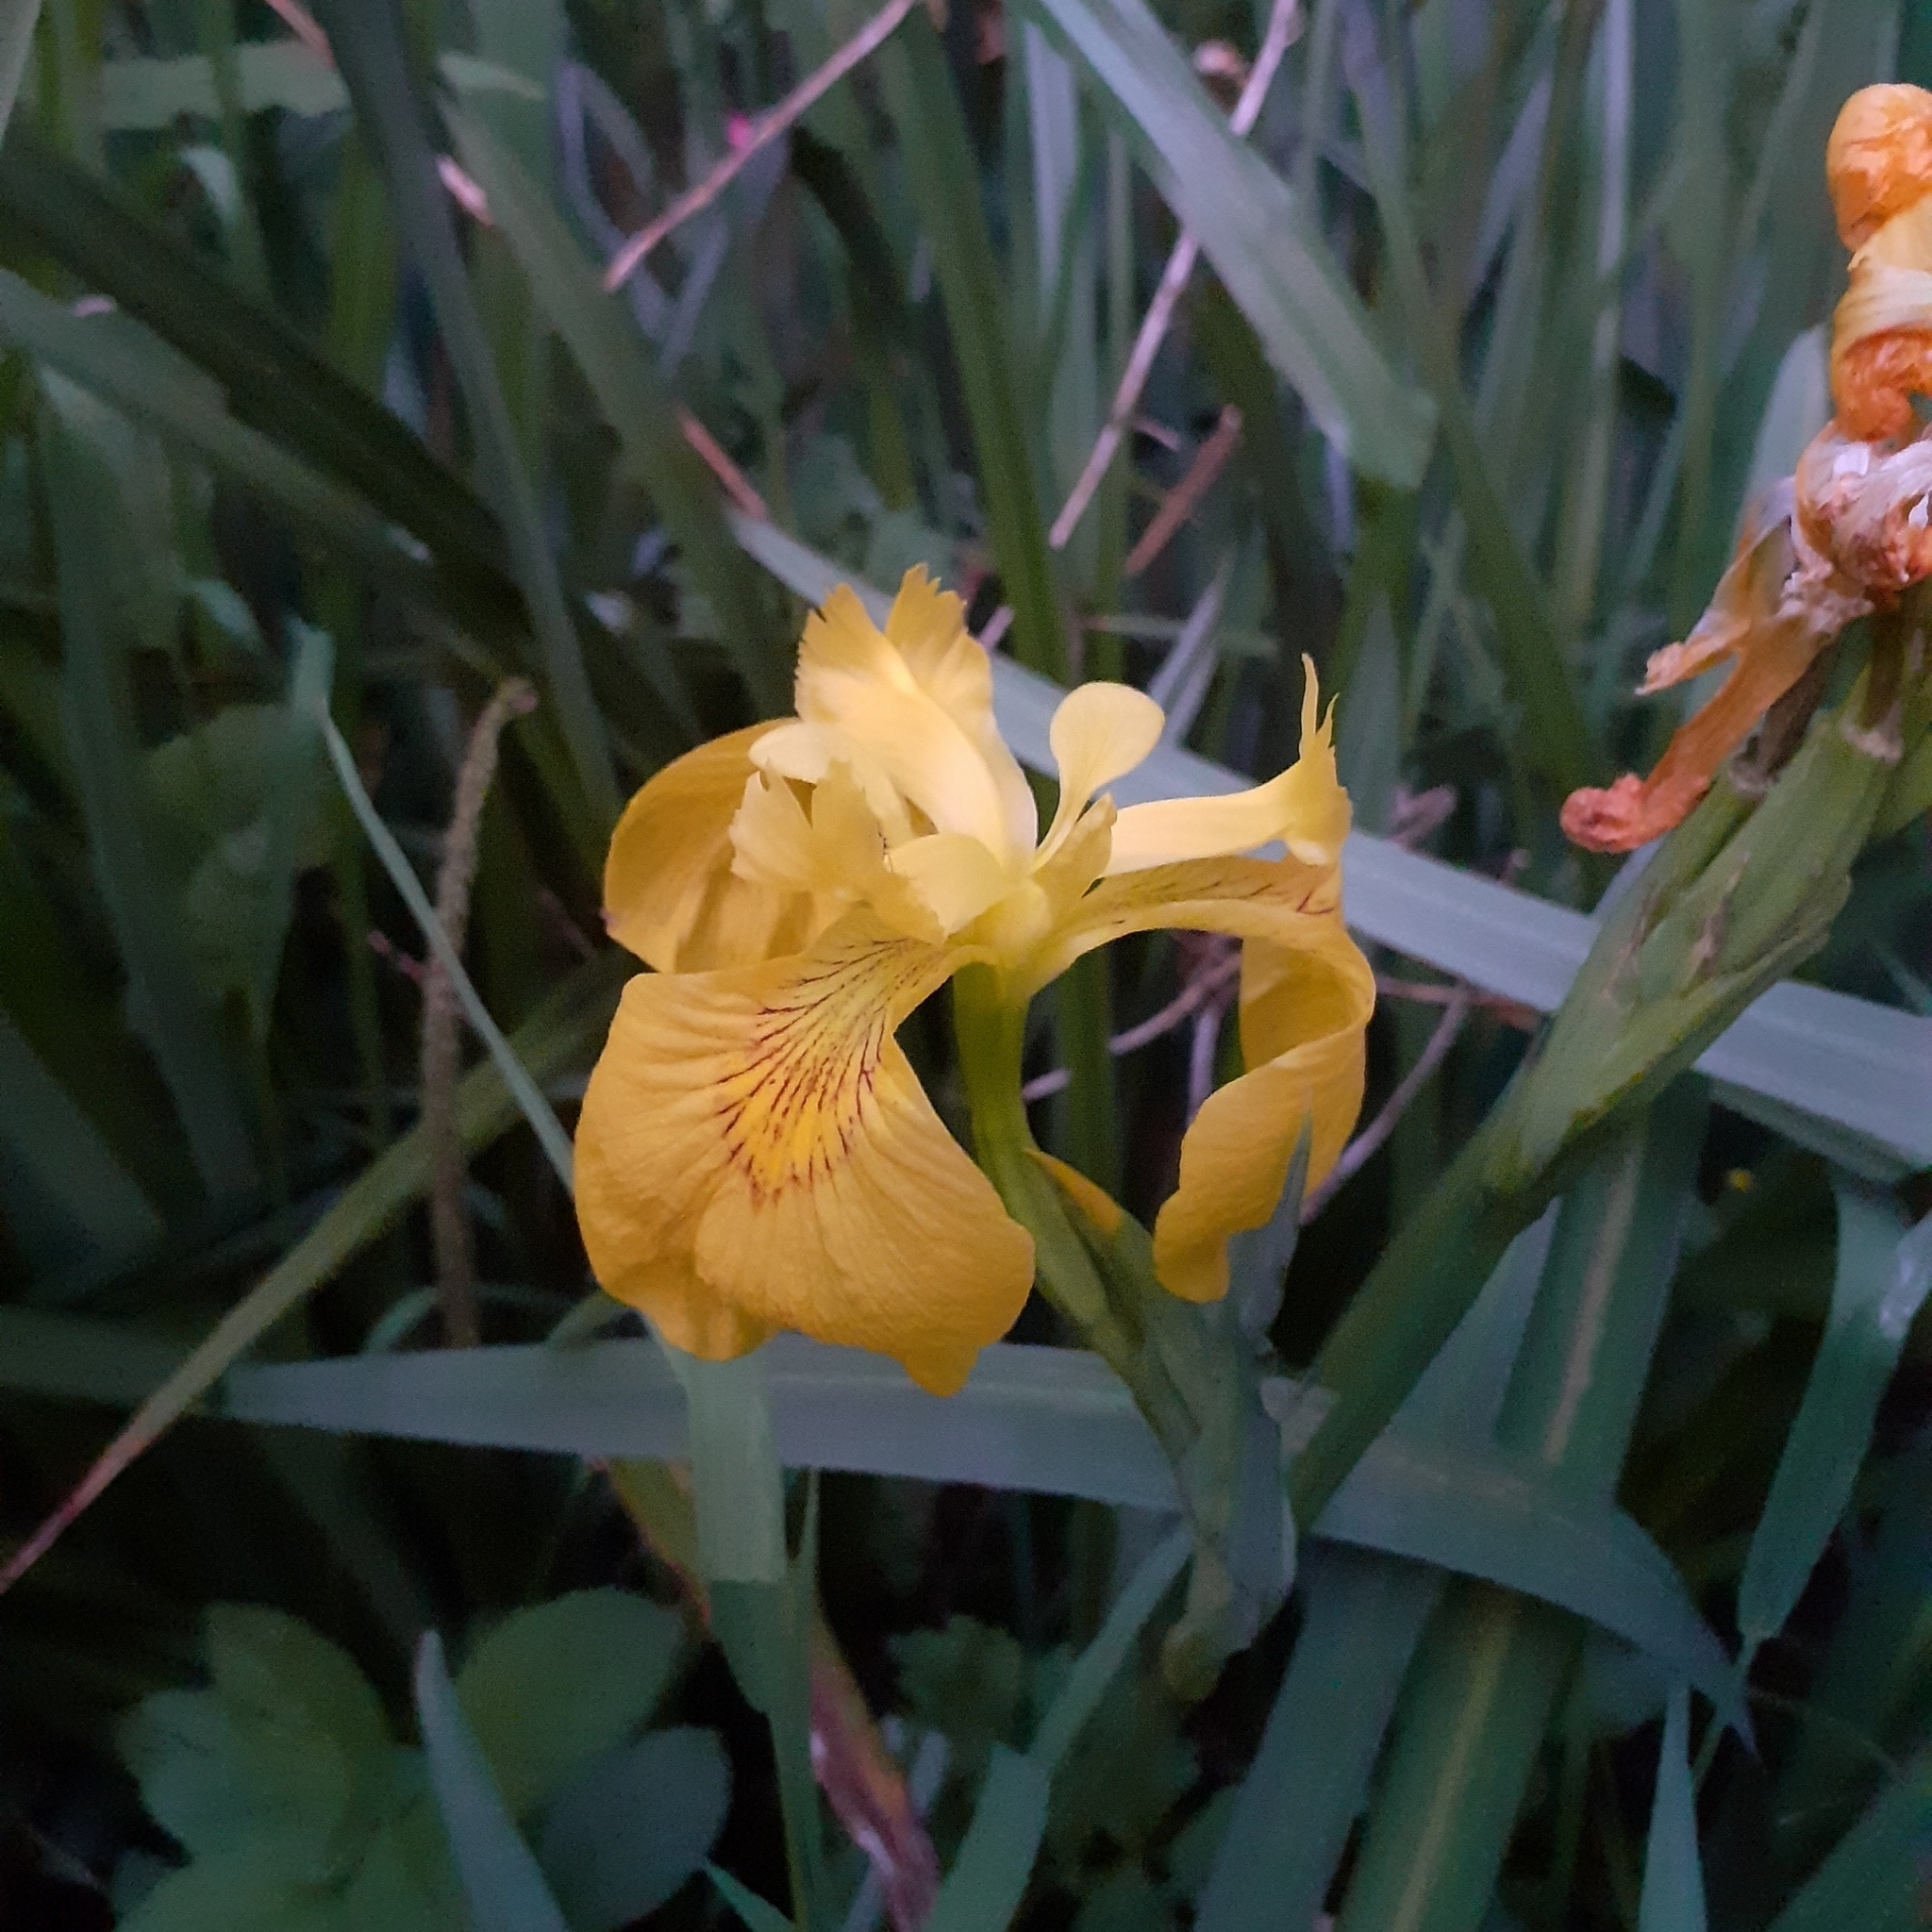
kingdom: Plantae
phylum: Tracheophyta
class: Liliopsida
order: Asparagales
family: Iridaceae
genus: Iris
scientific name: Iris pseudacorus
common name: Yellow flag
